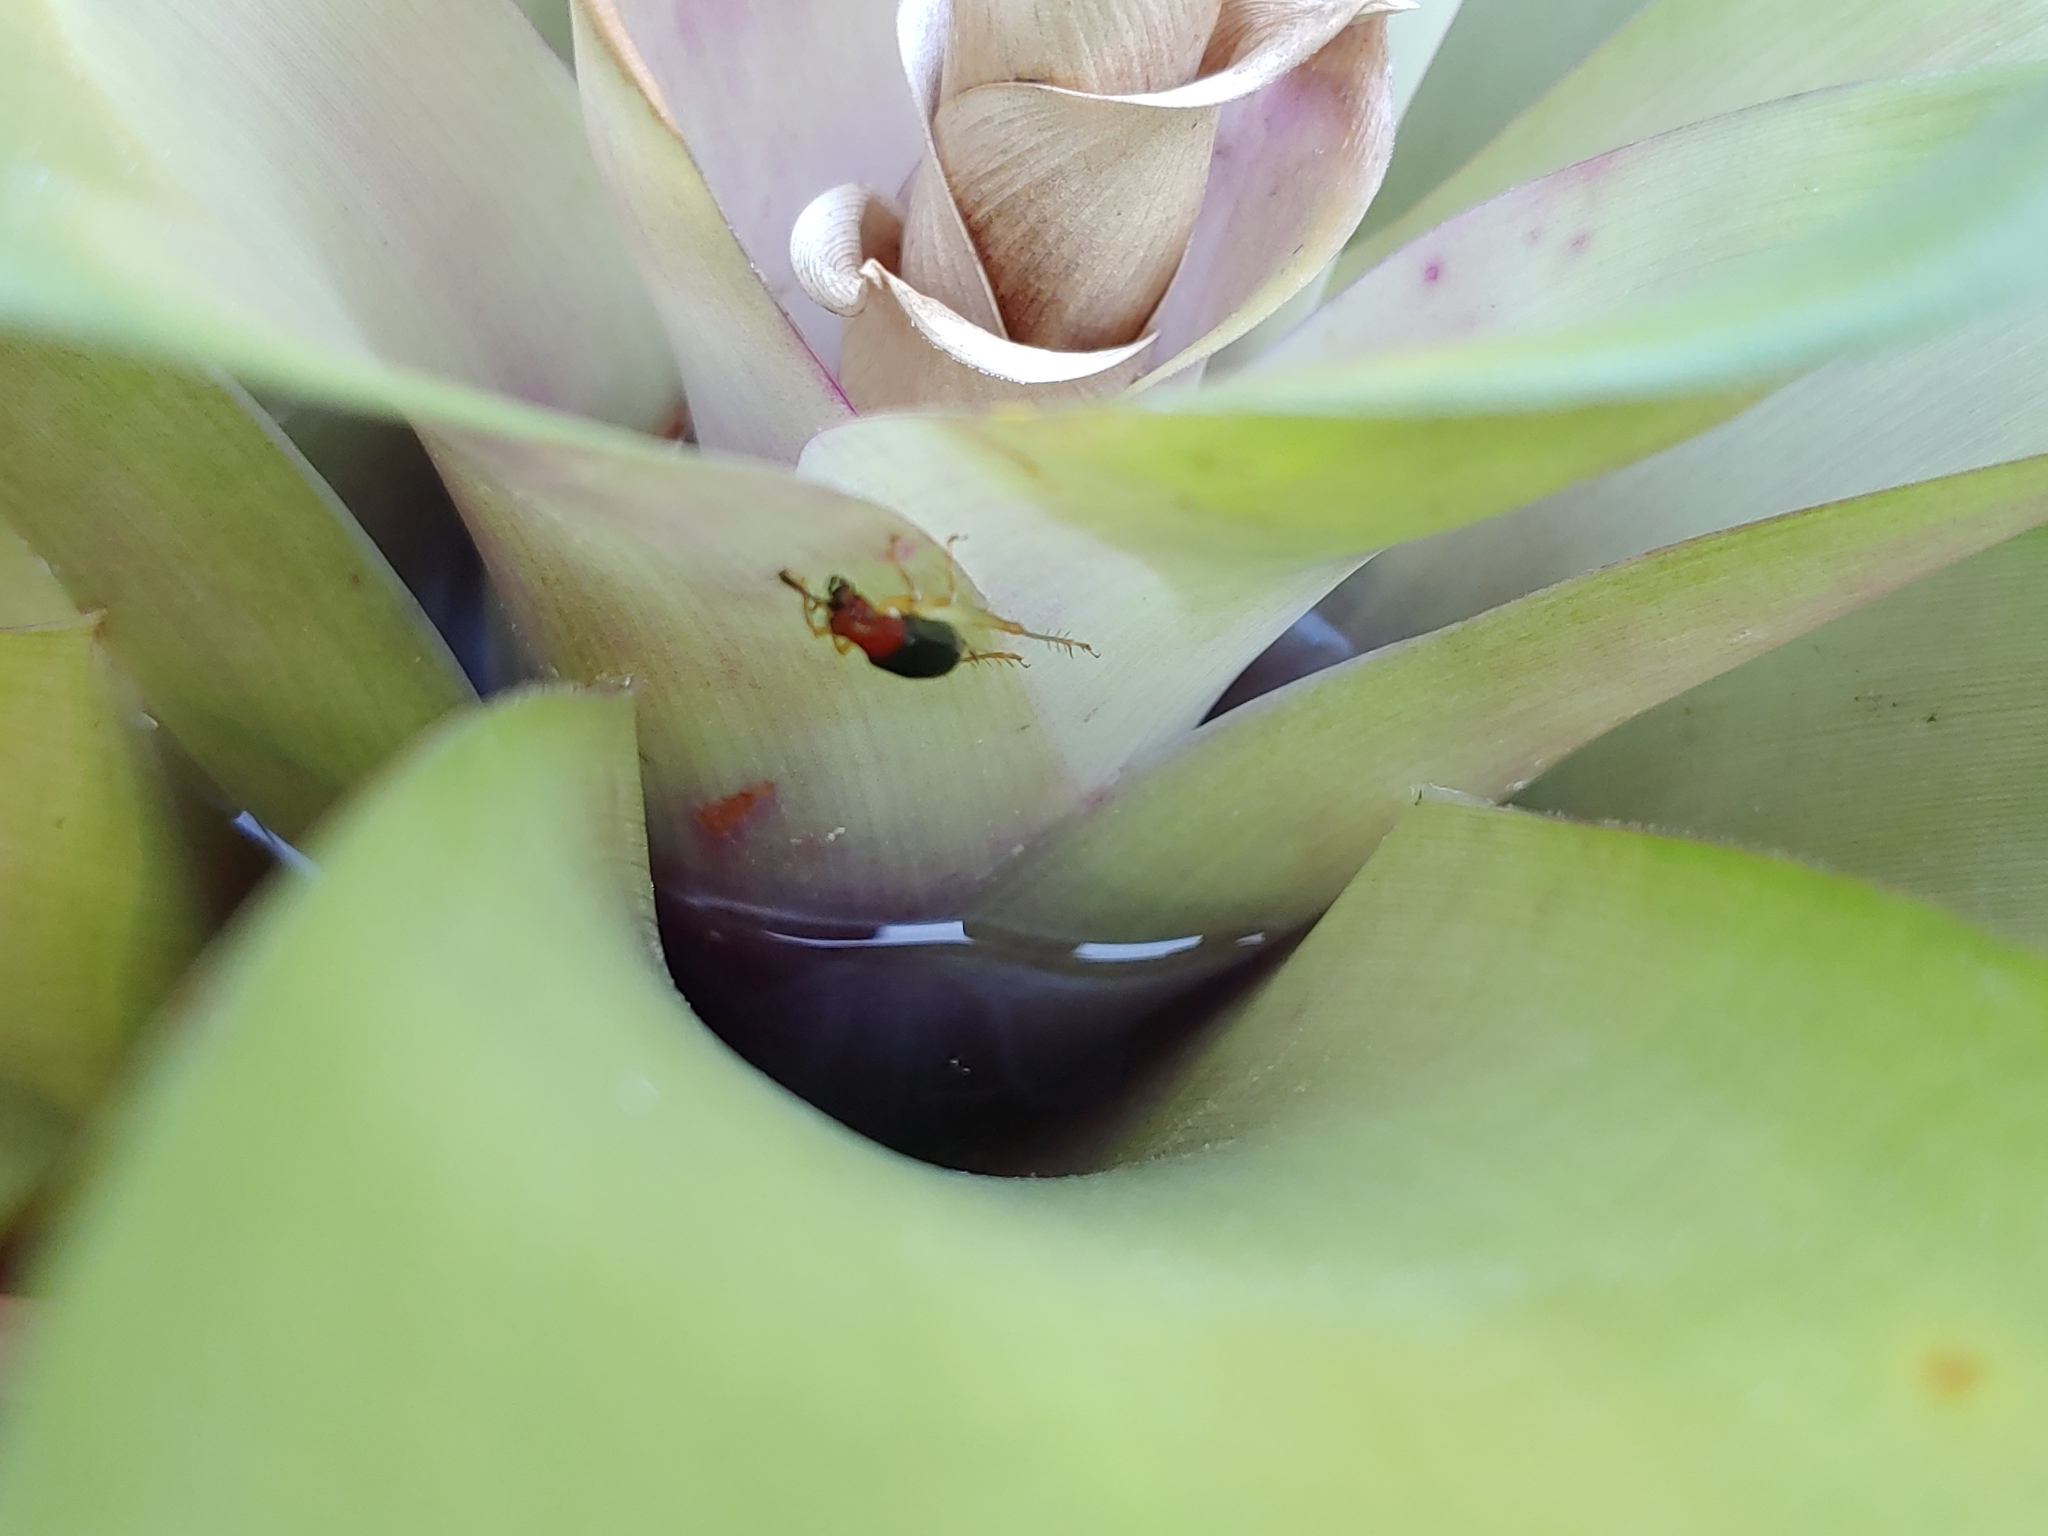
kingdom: Animalia
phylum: Arthropoda
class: Insecta
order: Orthoptera
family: Trigonidiidae
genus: Phyllopalpus
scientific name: Phyllopalpus pulchellus
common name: Handsome trig
